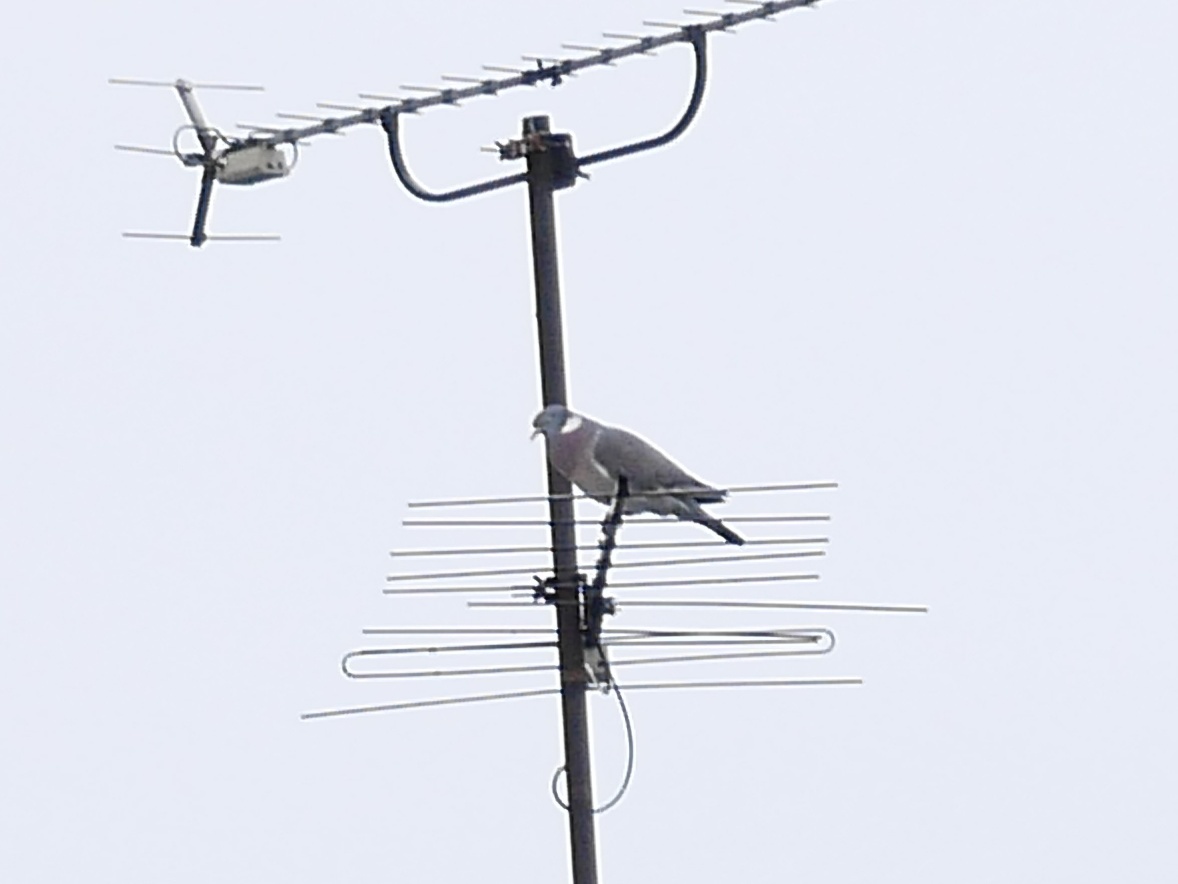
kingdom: Animalia
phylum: Chordata
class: Aves
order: Columbiformes
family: Columbidae
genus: Columba
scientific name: Columba palumbus
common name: Common wood pigeon
